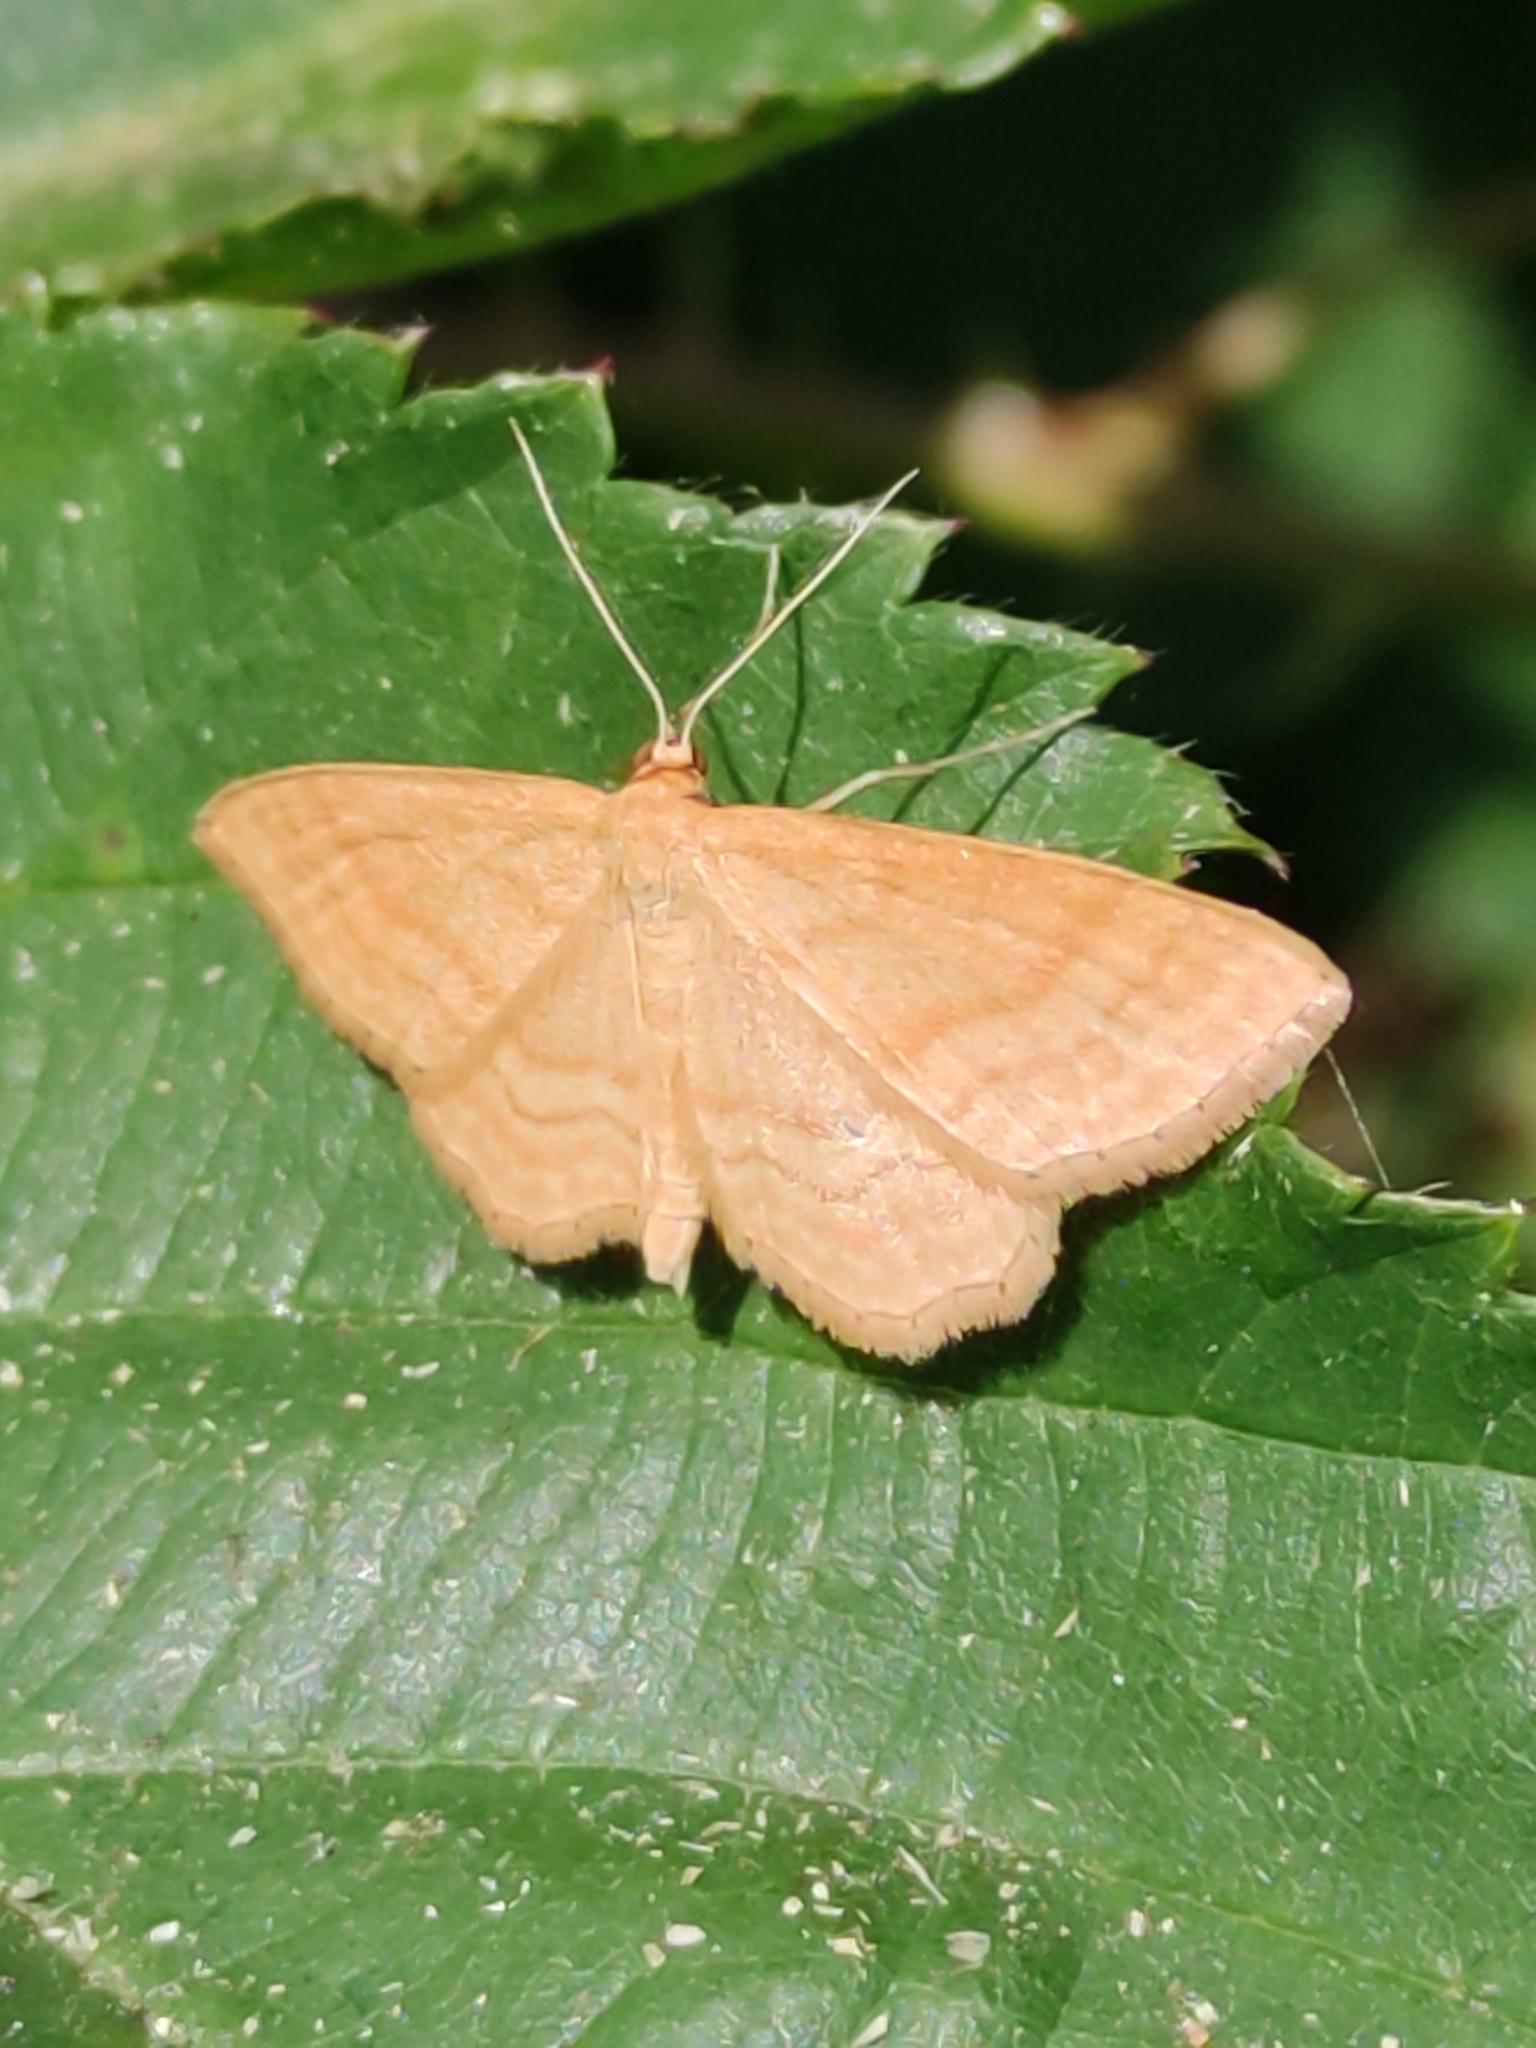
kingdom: Animalia
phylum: Arthropoda
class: Insecta
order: Lepidoptera
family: Geometridae
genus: Idaea
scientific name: Idaea ochrata
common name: Bright wave
